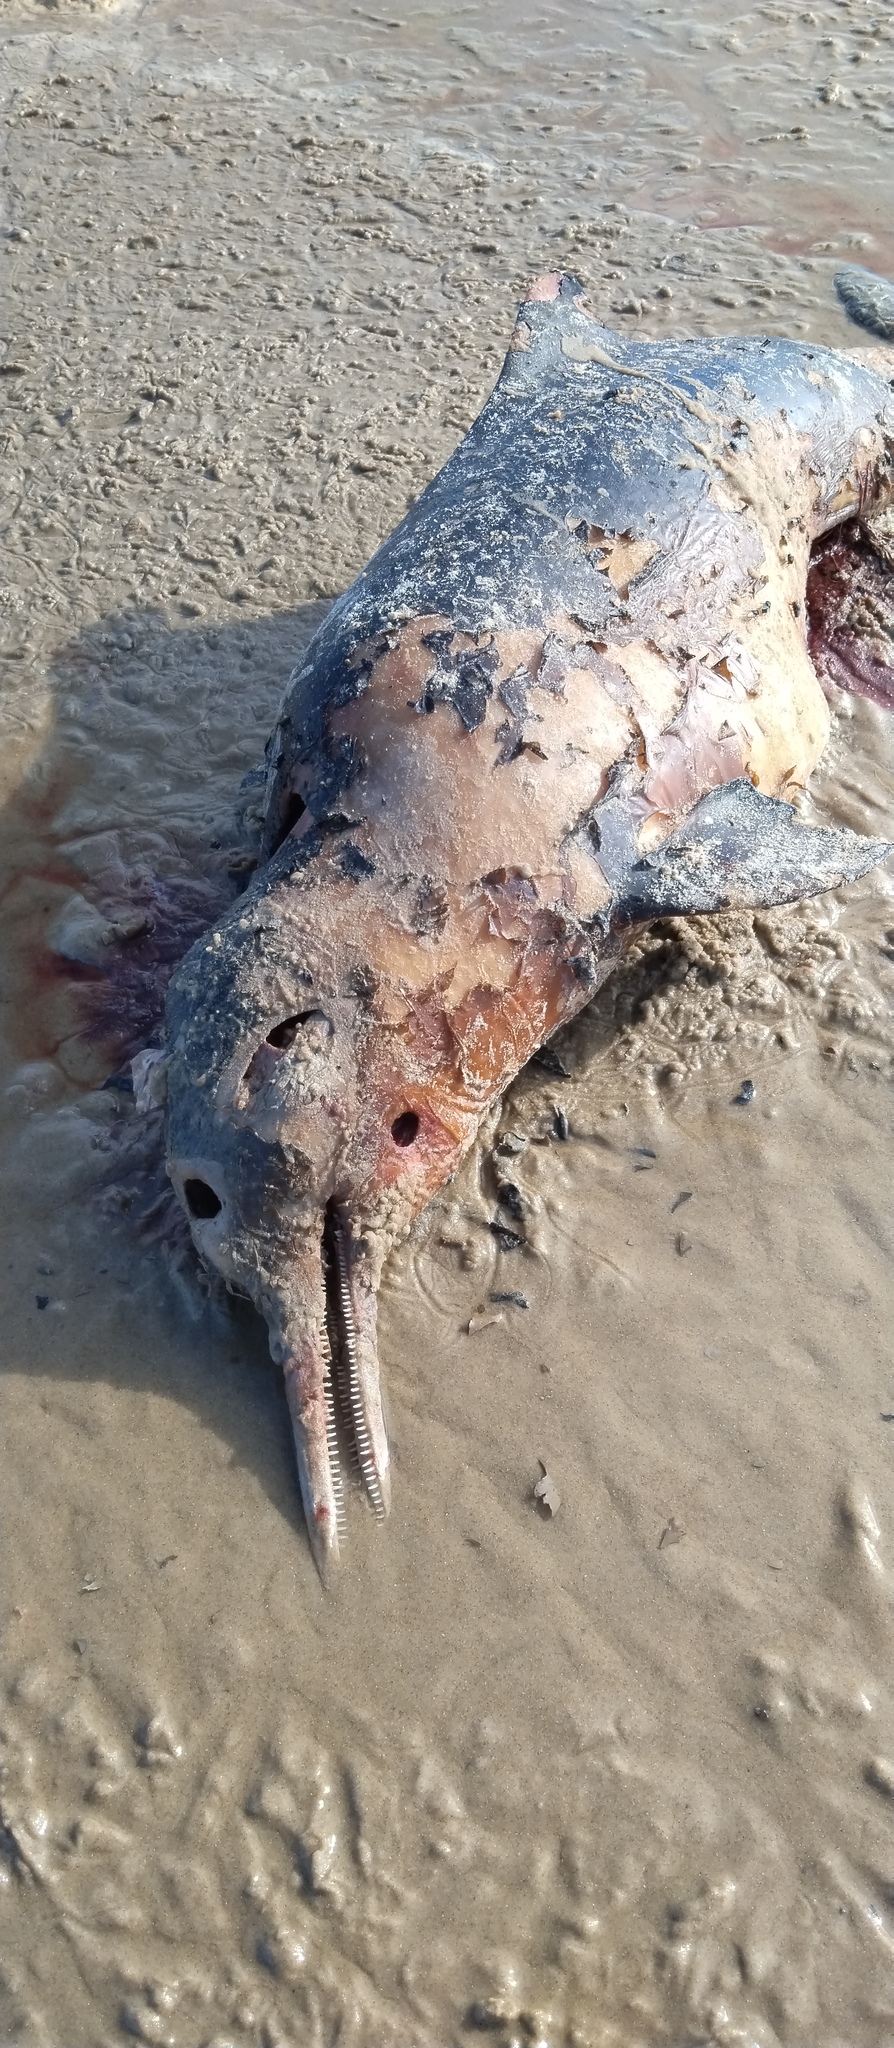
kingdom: Animalia
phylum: Chordata
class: Mammalia
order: Cetacea
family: Pontoporiidae
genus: Pontoporia
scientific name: Pontoporia blainvillei
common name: Franciscana
